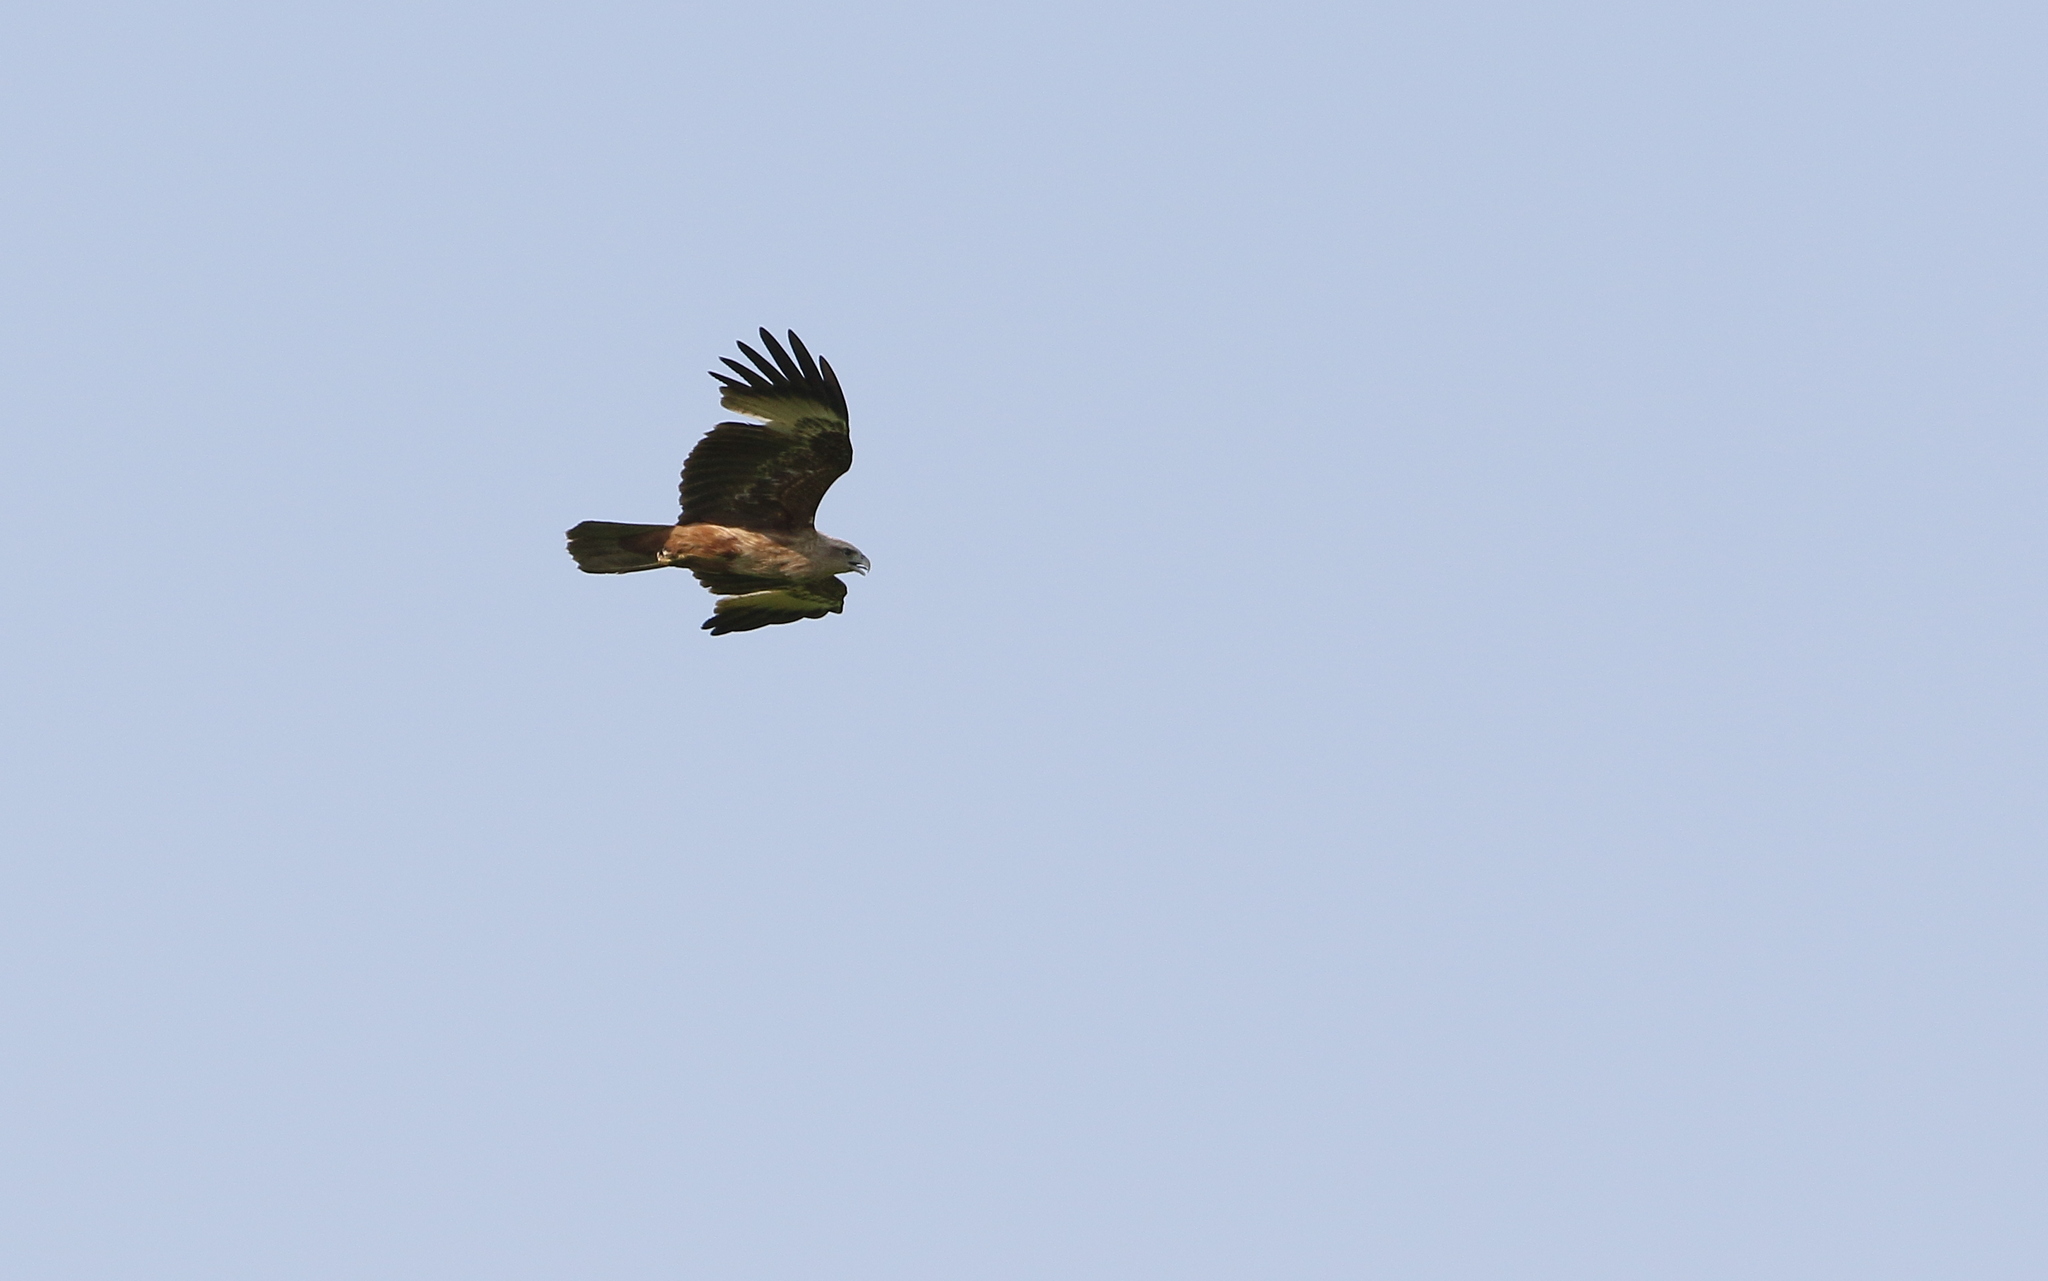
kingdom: Animalia
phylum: Chordata
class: Aves
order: Accipitriformes
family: Accipitridae
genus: Haliastur
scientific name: Haliastur indus
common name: Brahminy kite
